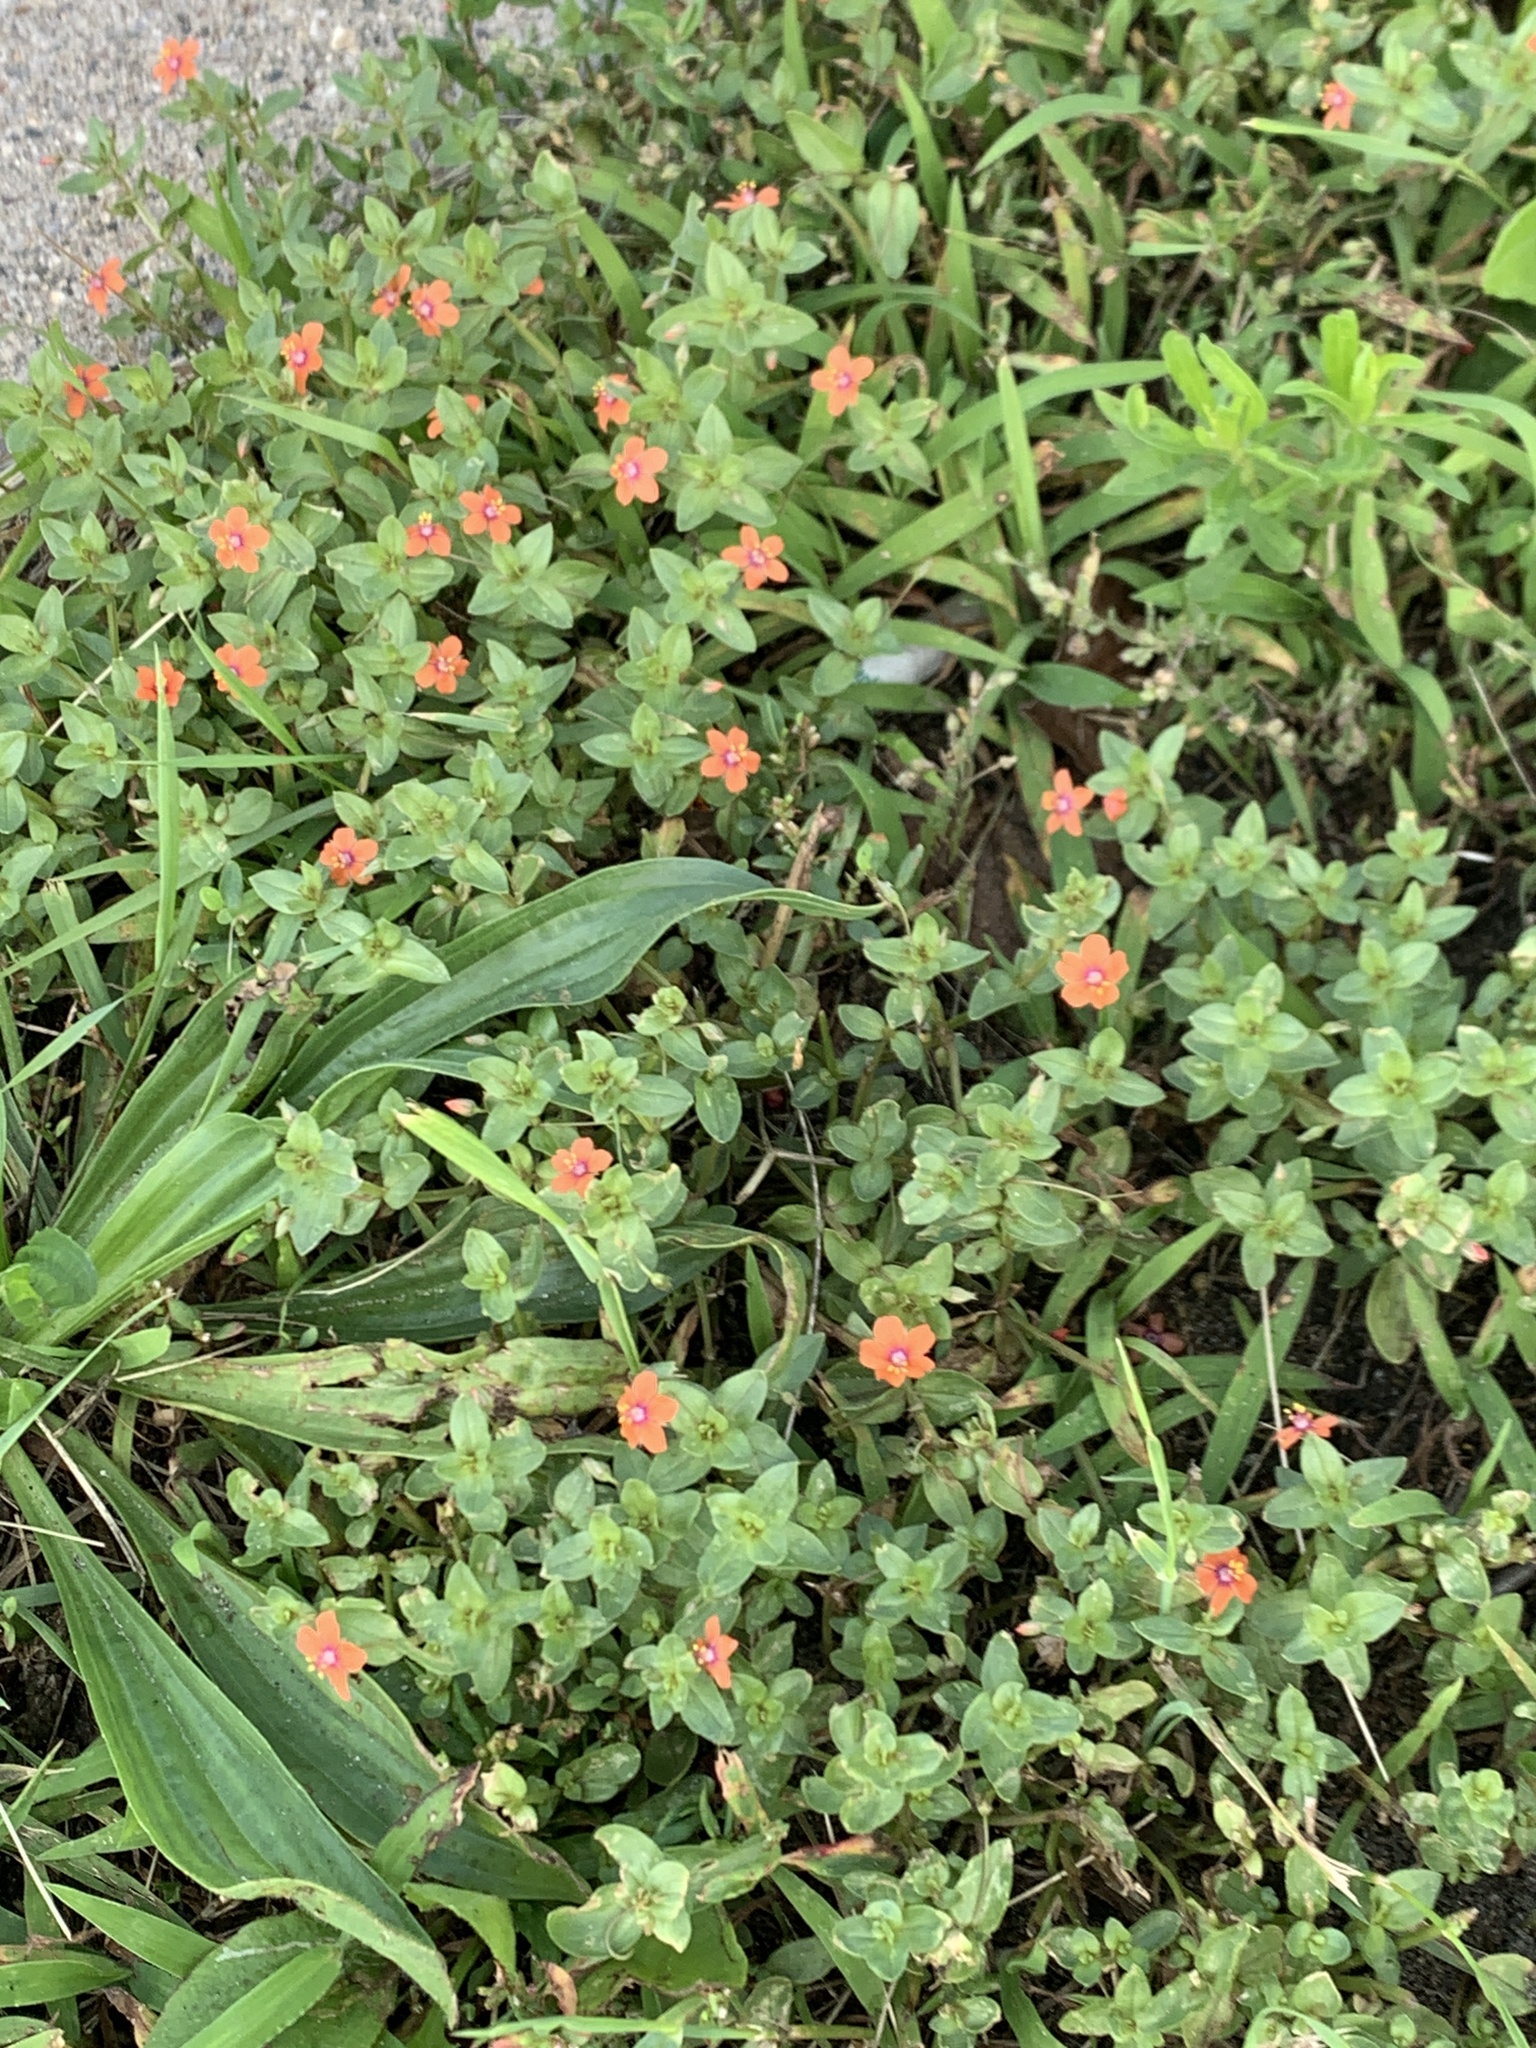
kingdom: Plantae
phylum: Tracheophyta
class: Magnoliopsida
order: Ericales
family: Primulaceae
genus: Lysimachia
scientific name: Lysimachia arvensis
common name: Scarlet pimpernel
